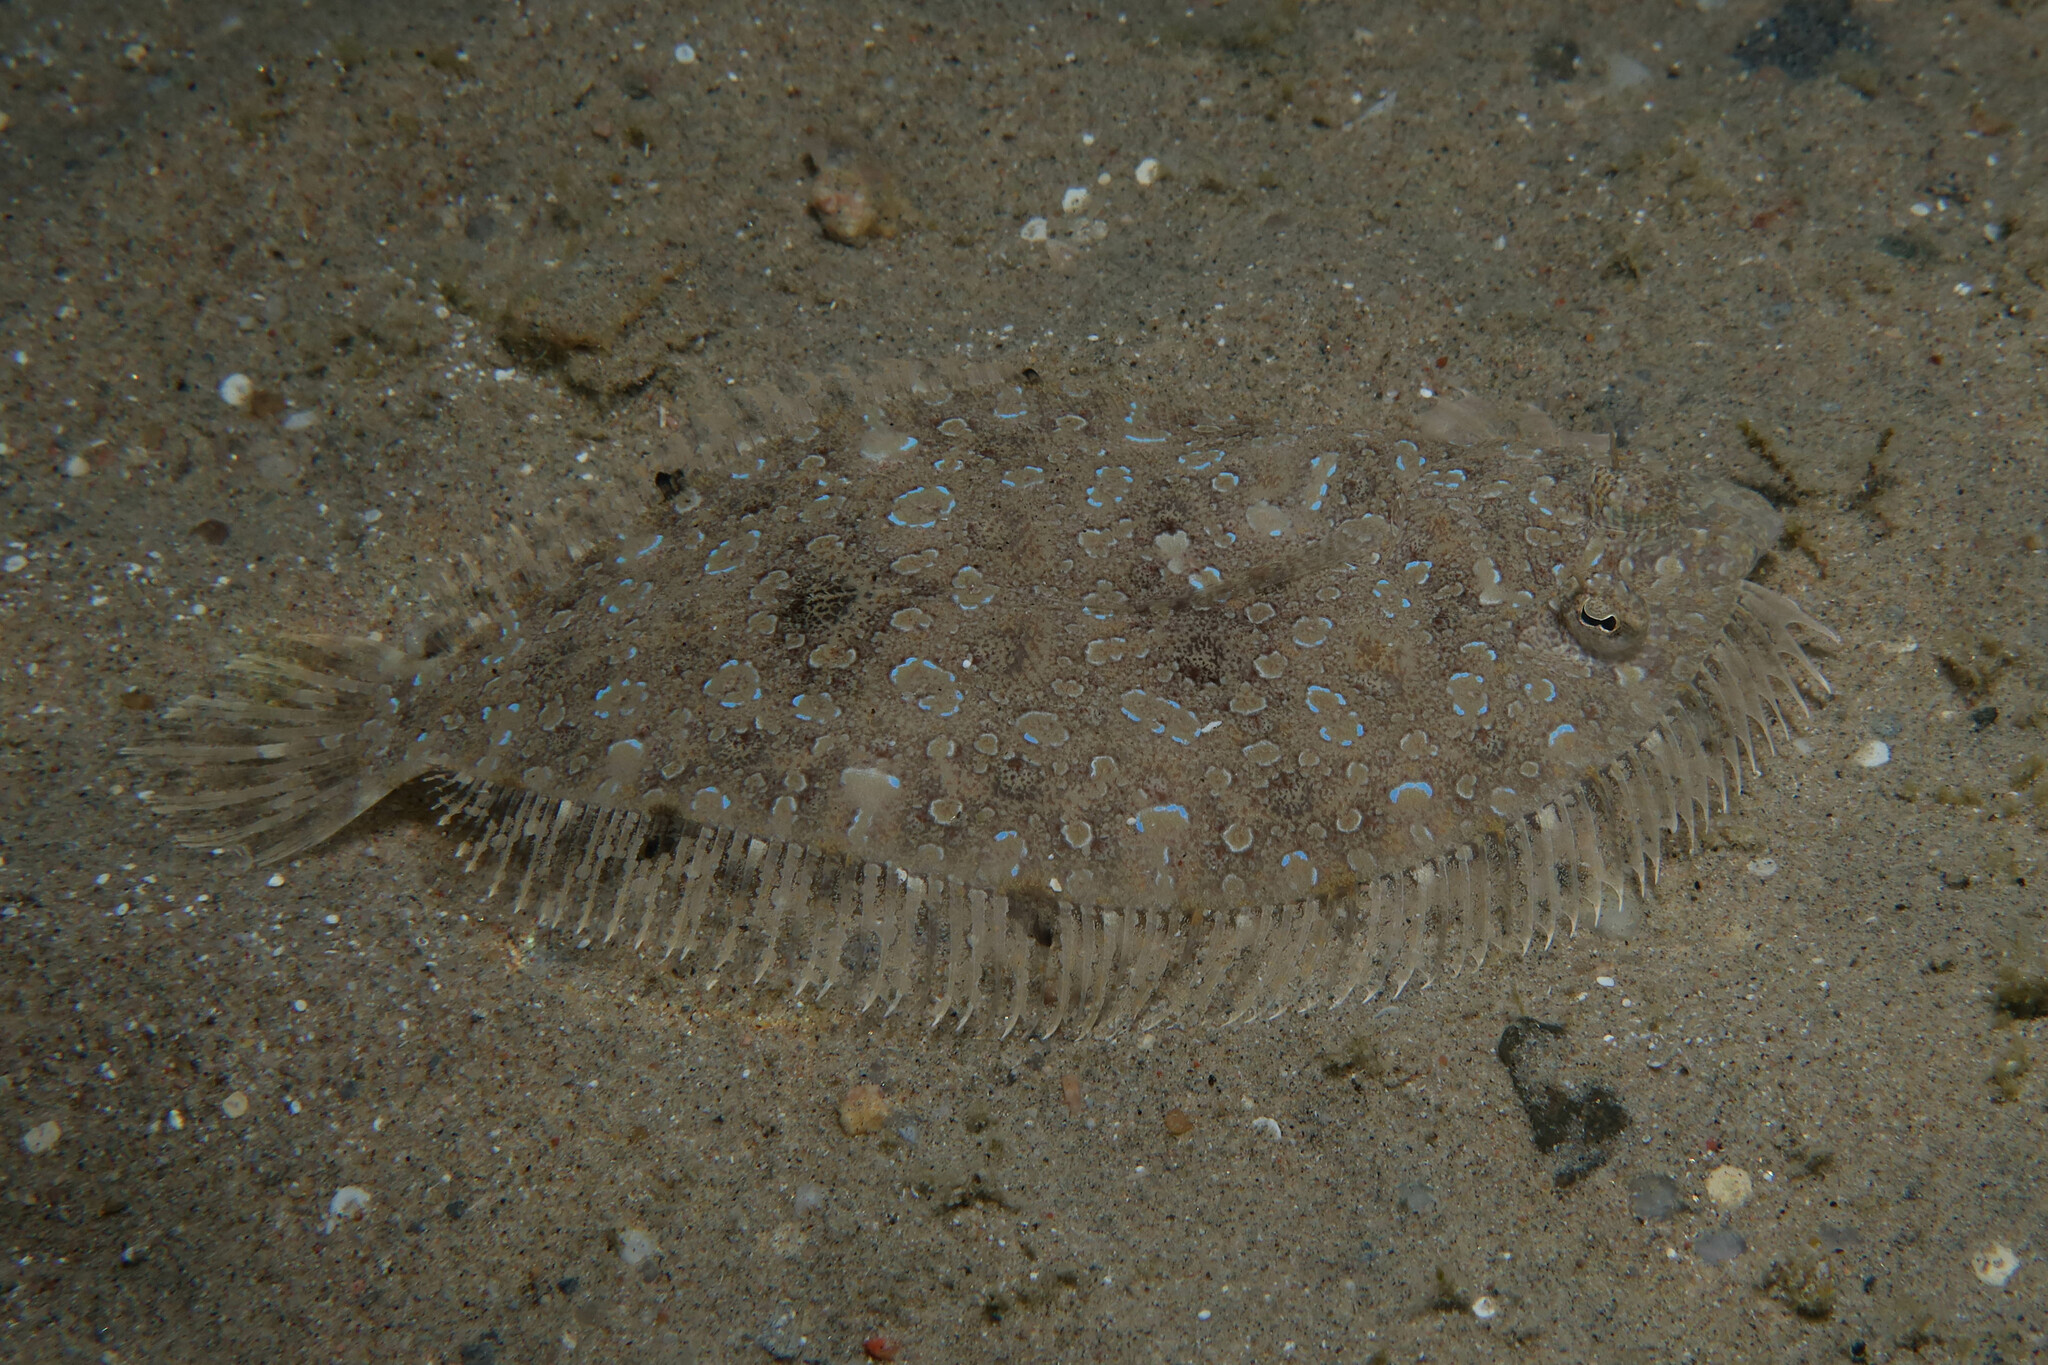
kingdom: Animalia
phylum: Chordata
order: Pleuronectiformes
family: Bothidae
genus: Bothus
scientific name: Bothus pantherinus
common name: Leopard flounder
